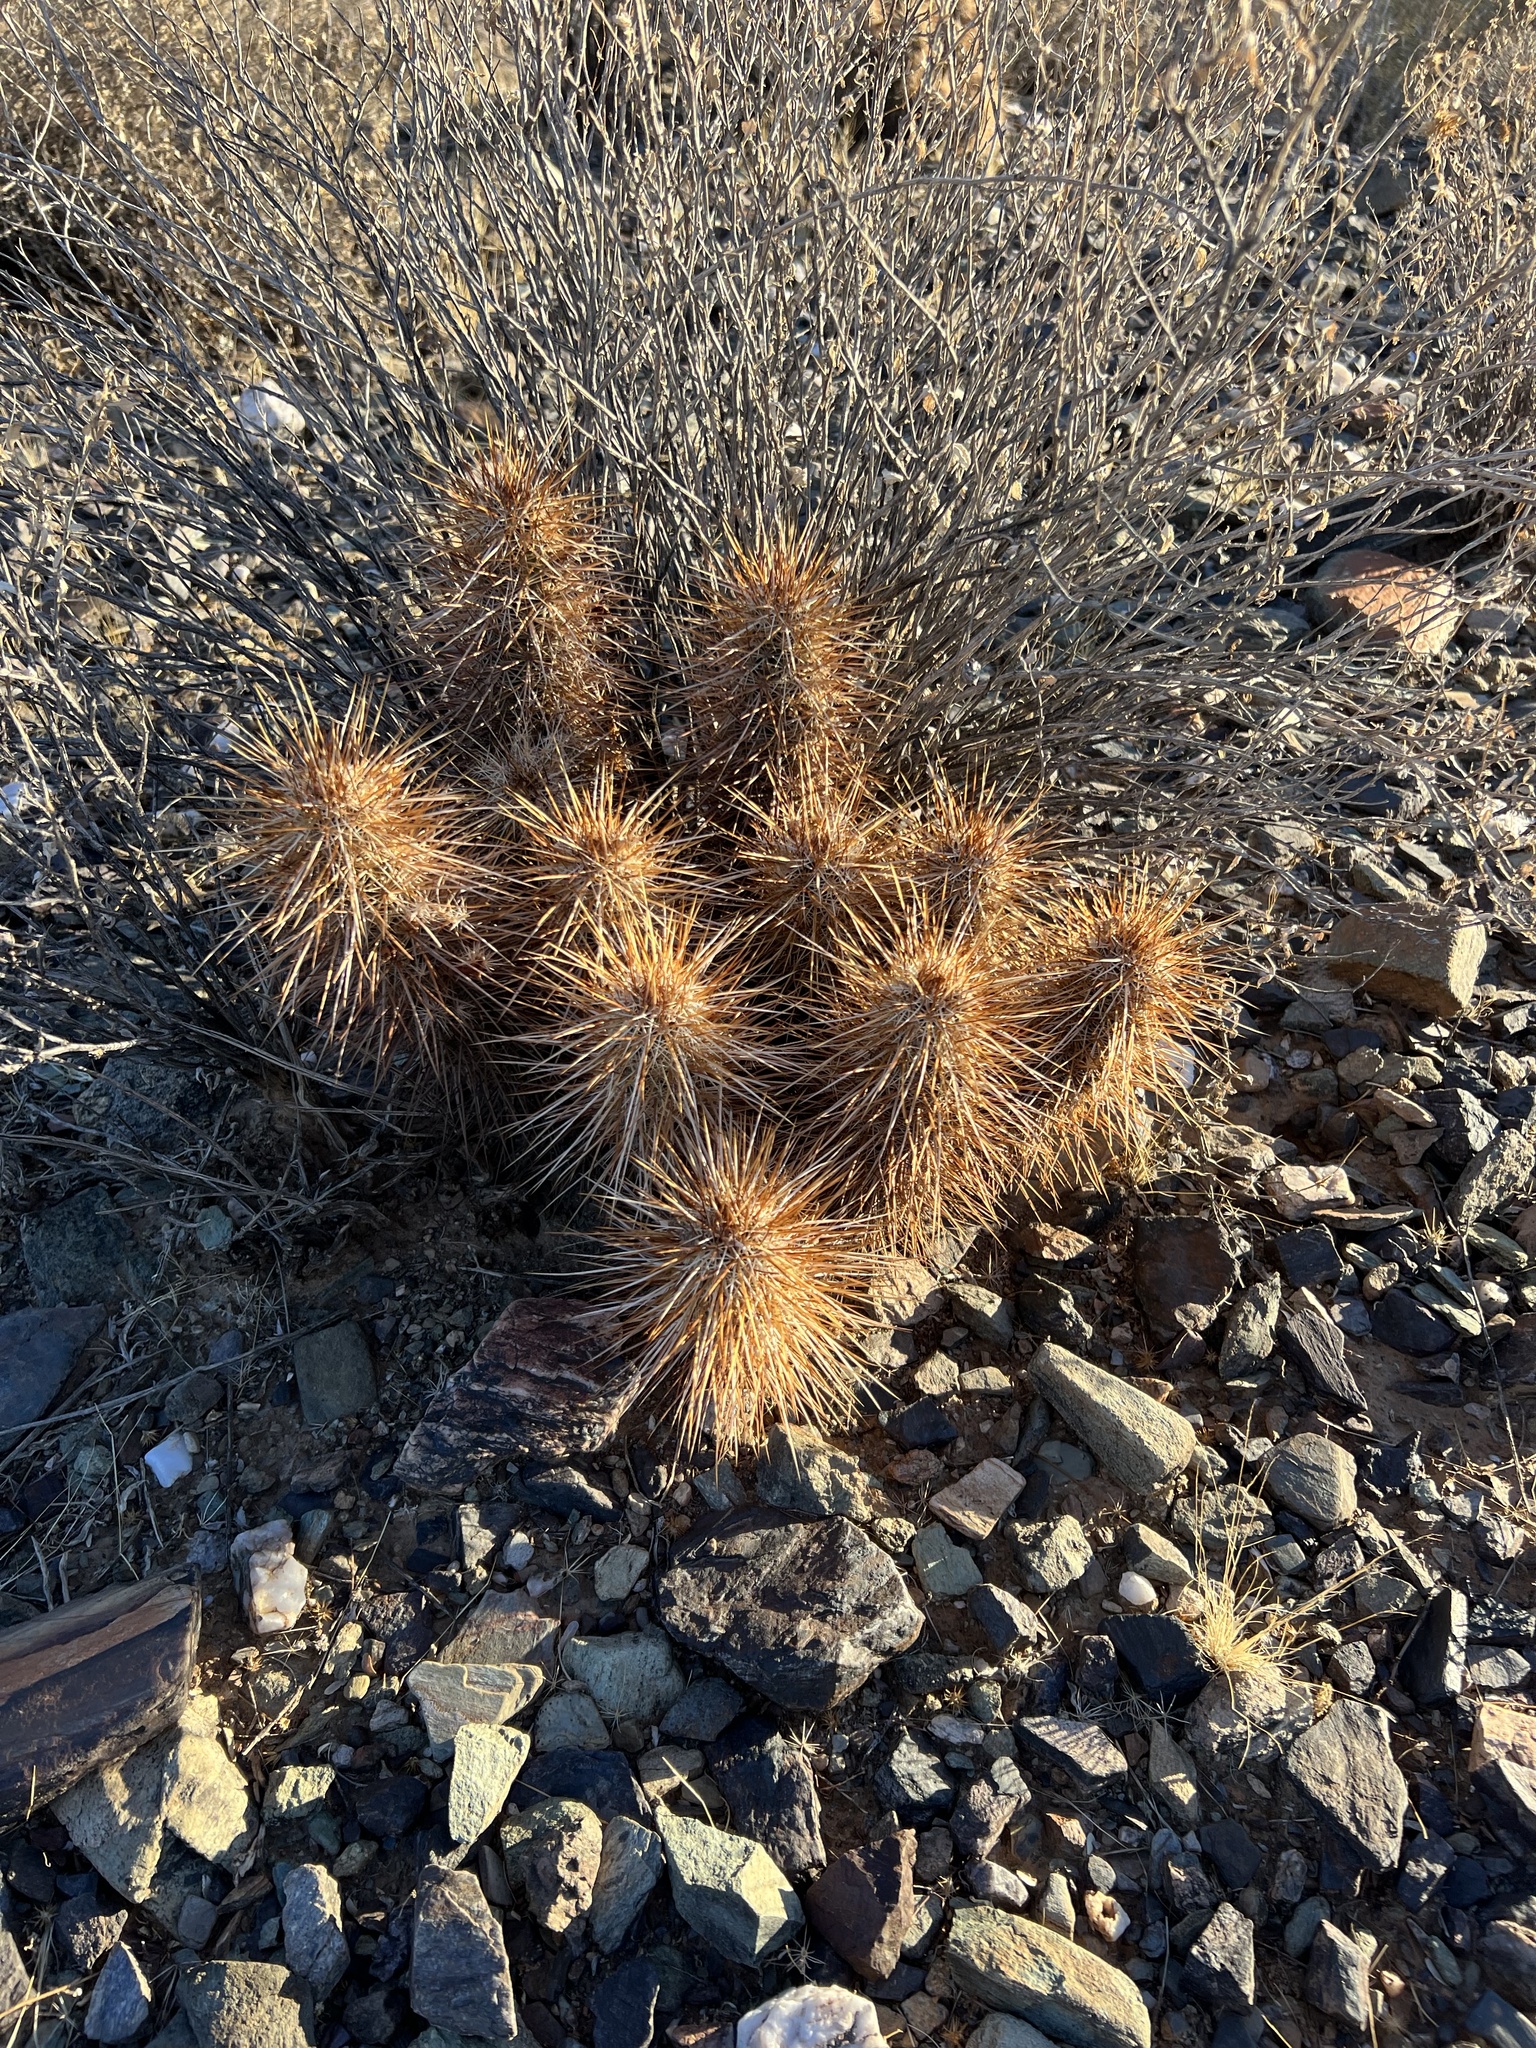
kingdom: Plantae
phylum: Tracheophyta
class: Magnoliopsida
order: Caryophyllales
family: Cactaceae
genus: Echinocereus
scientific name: Echinocereus engelmannii
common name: Engelmann's hedgehog cactus
